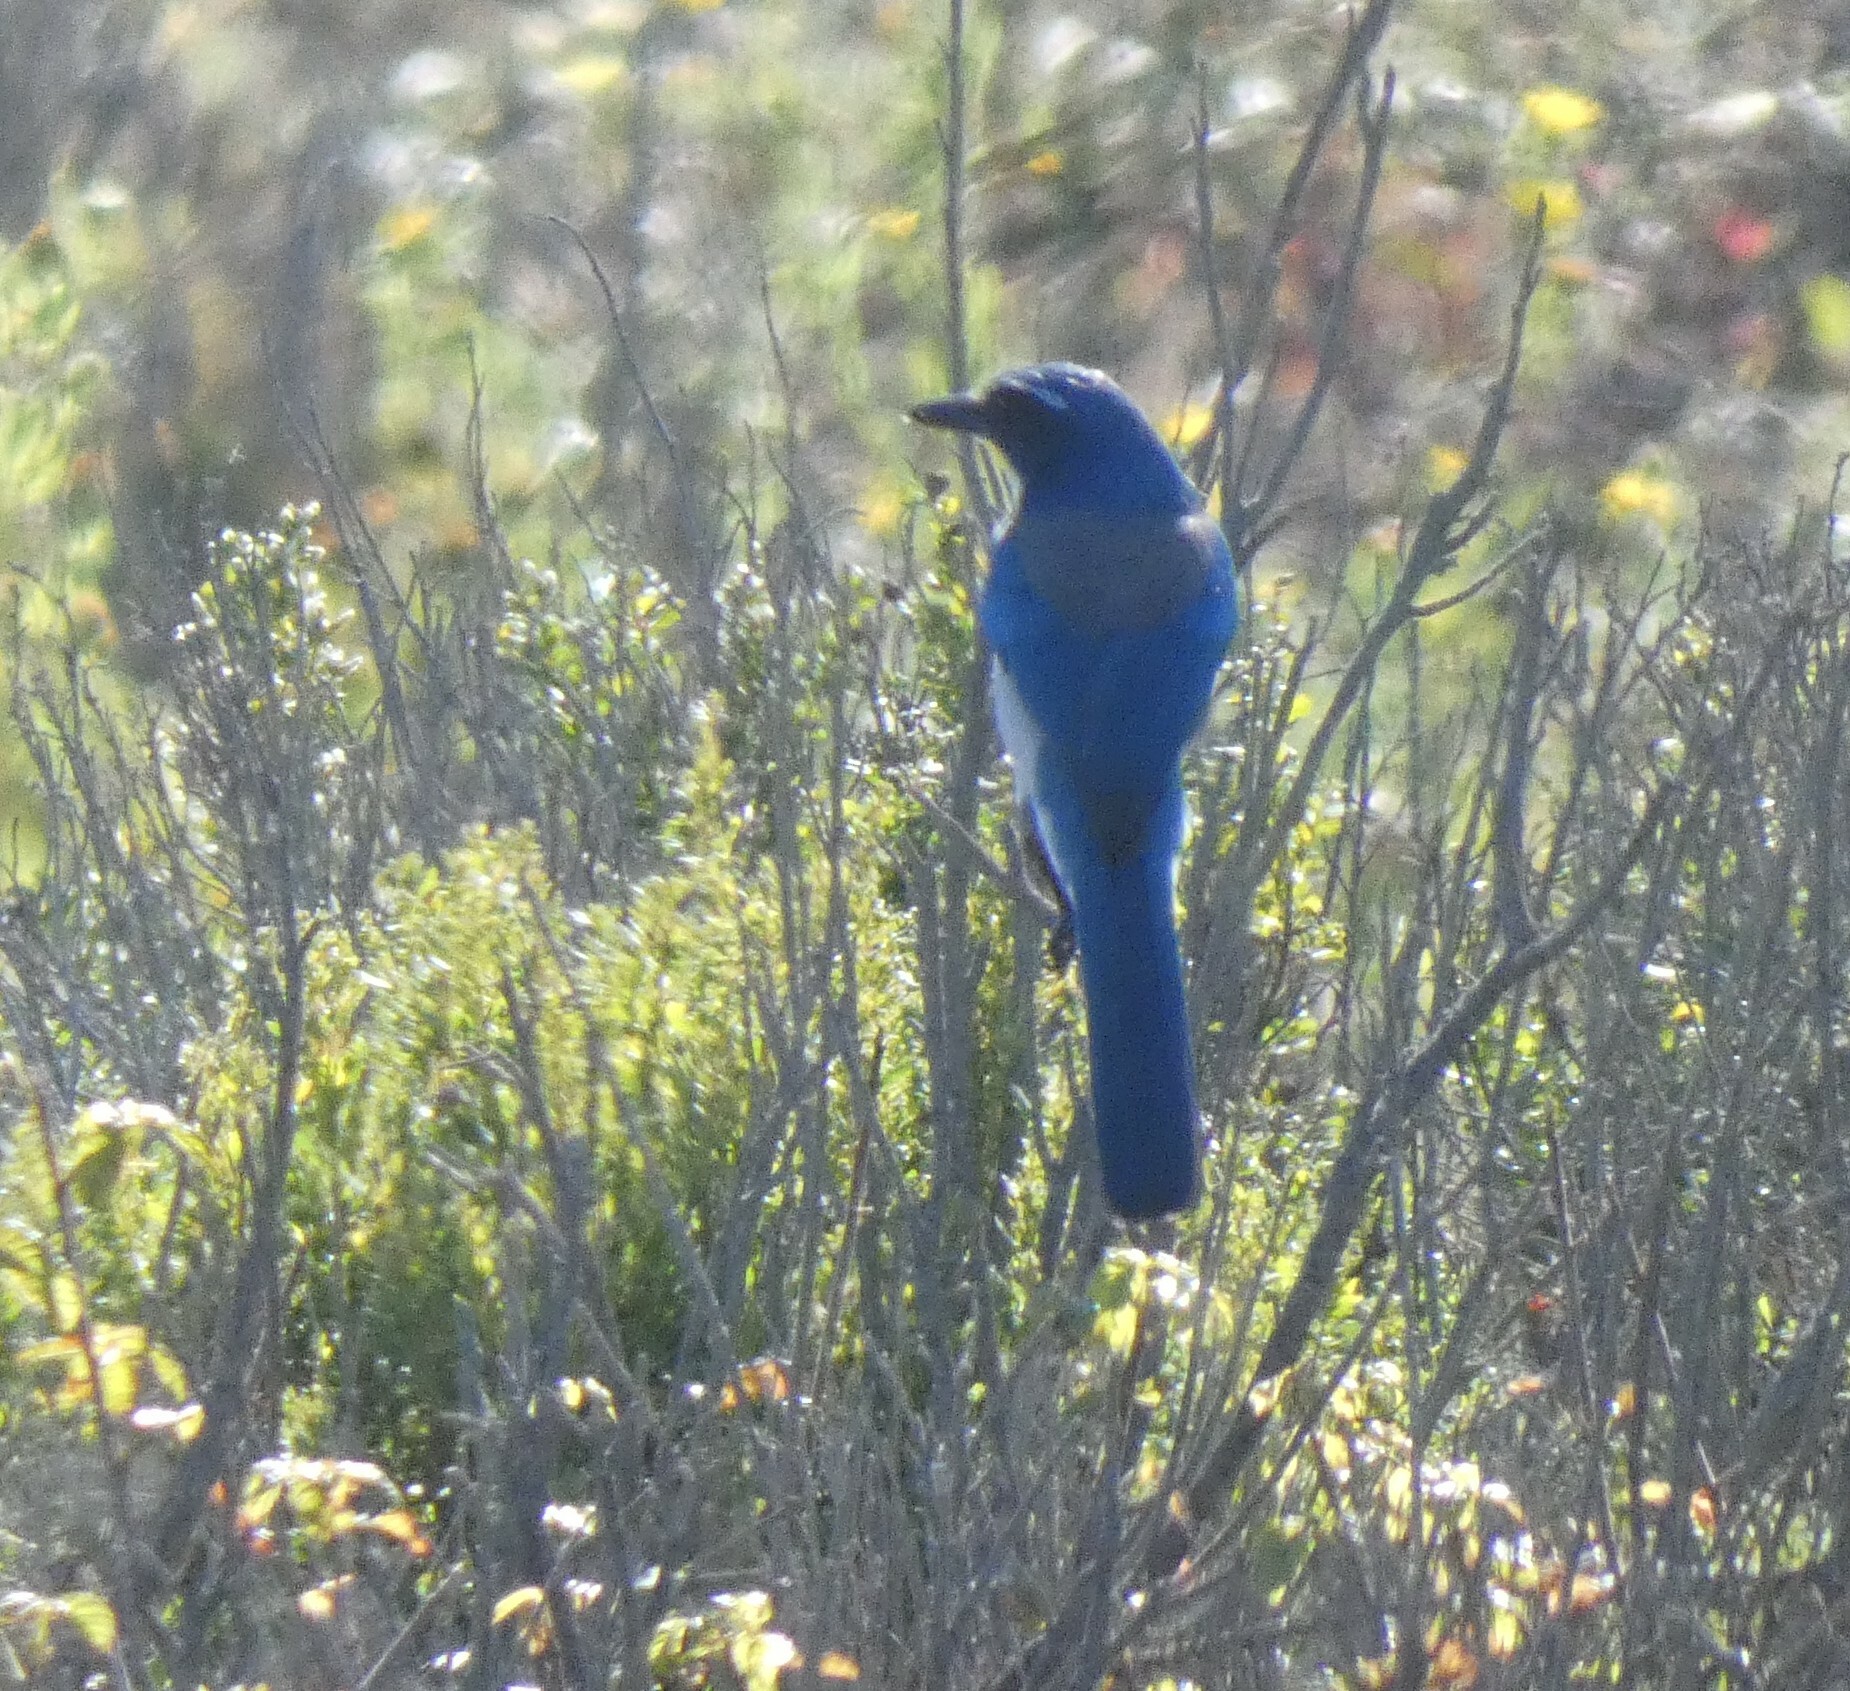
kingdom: Animalia
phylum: Chordata
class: Aves
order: Passeriformes
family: Corvidae
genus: Aphelocoma
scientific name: Aphelocoma californica
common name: California scrub-jay
